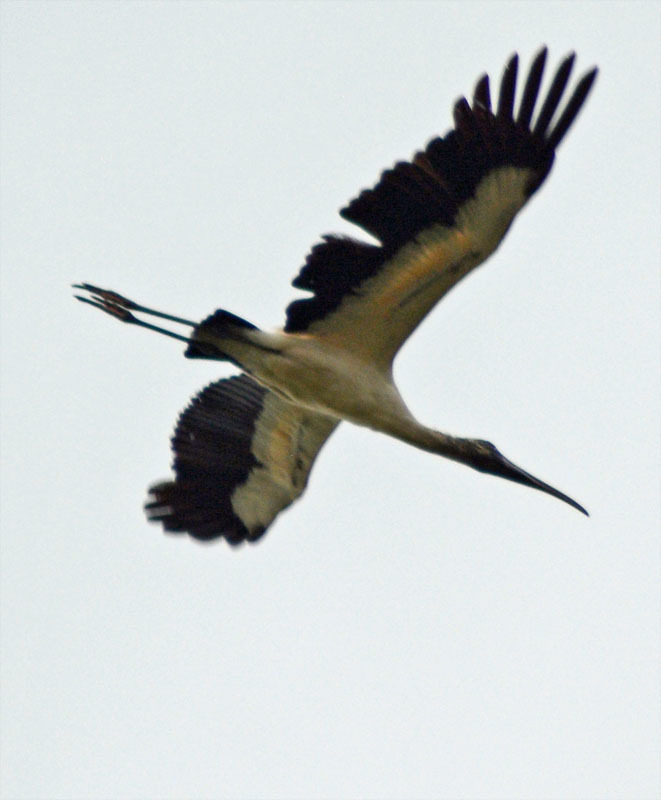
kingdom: Animalia
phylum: Chordata
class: Aves
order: Ciconiiformes
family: Ciconiidae
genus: Mycteria
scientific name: Mycteria americana
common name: Wood stork
